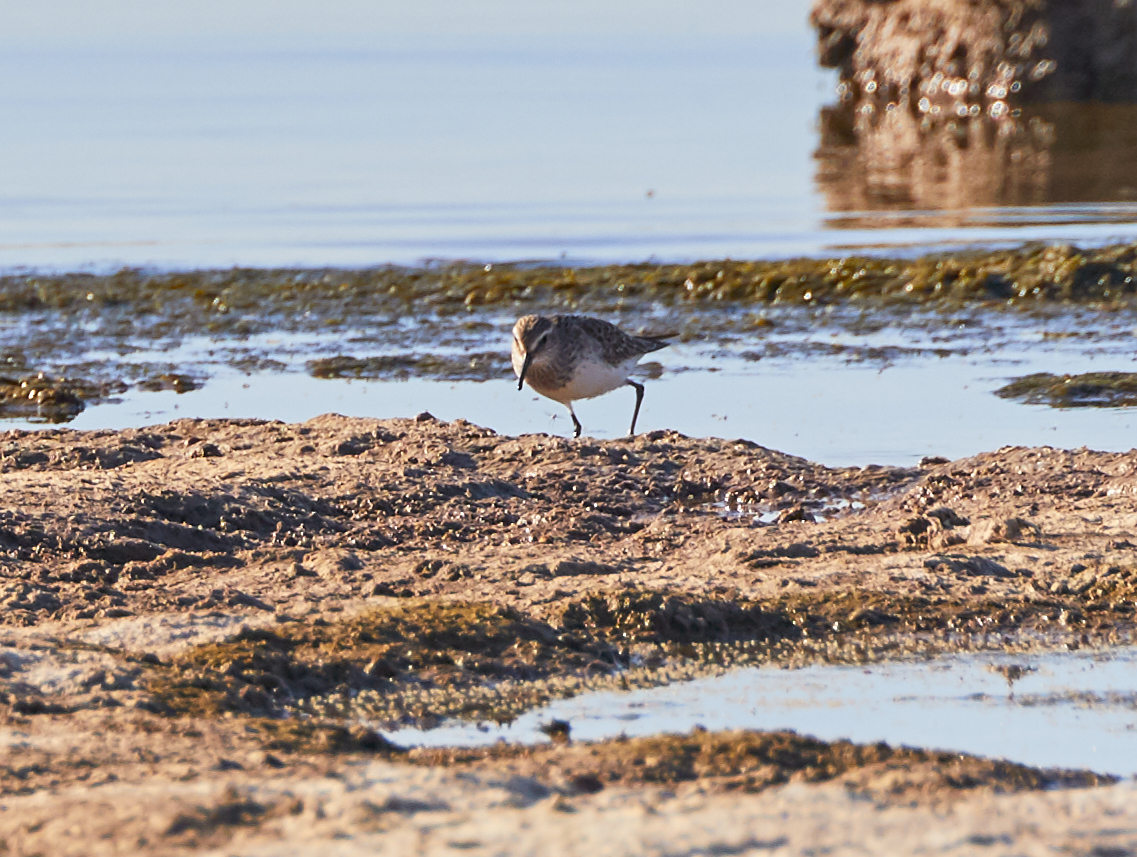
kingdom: Animalia
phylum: Chordata
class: Aves
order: Charadriiformes
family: Scolopacidae
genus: Calidris
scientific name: Calidris fuscicollis
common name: White-rumped sandpiper
